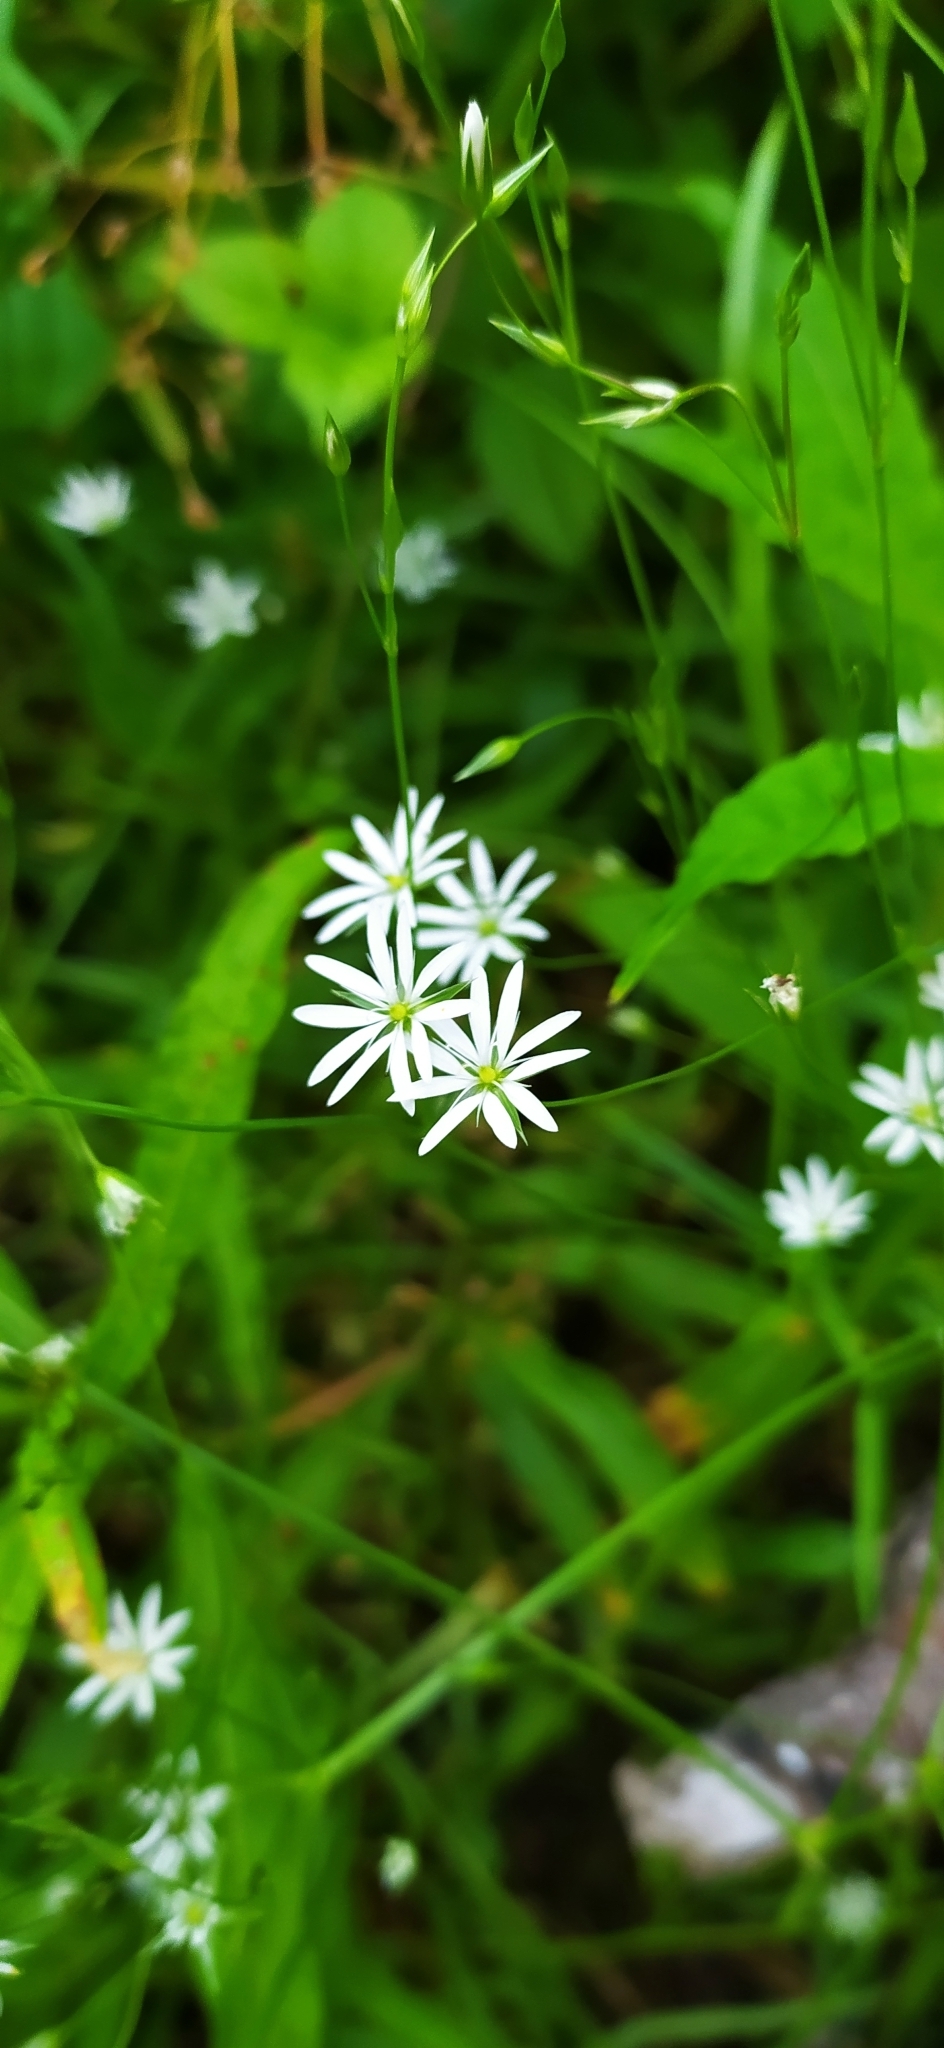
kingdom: Plantae
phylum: Tracheophyta
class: Magnoliopsida
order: Caryophyllales
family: Caryophyllaceae
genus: Stellaria
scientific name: Stellaria graminea
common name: Grass-like starwort
